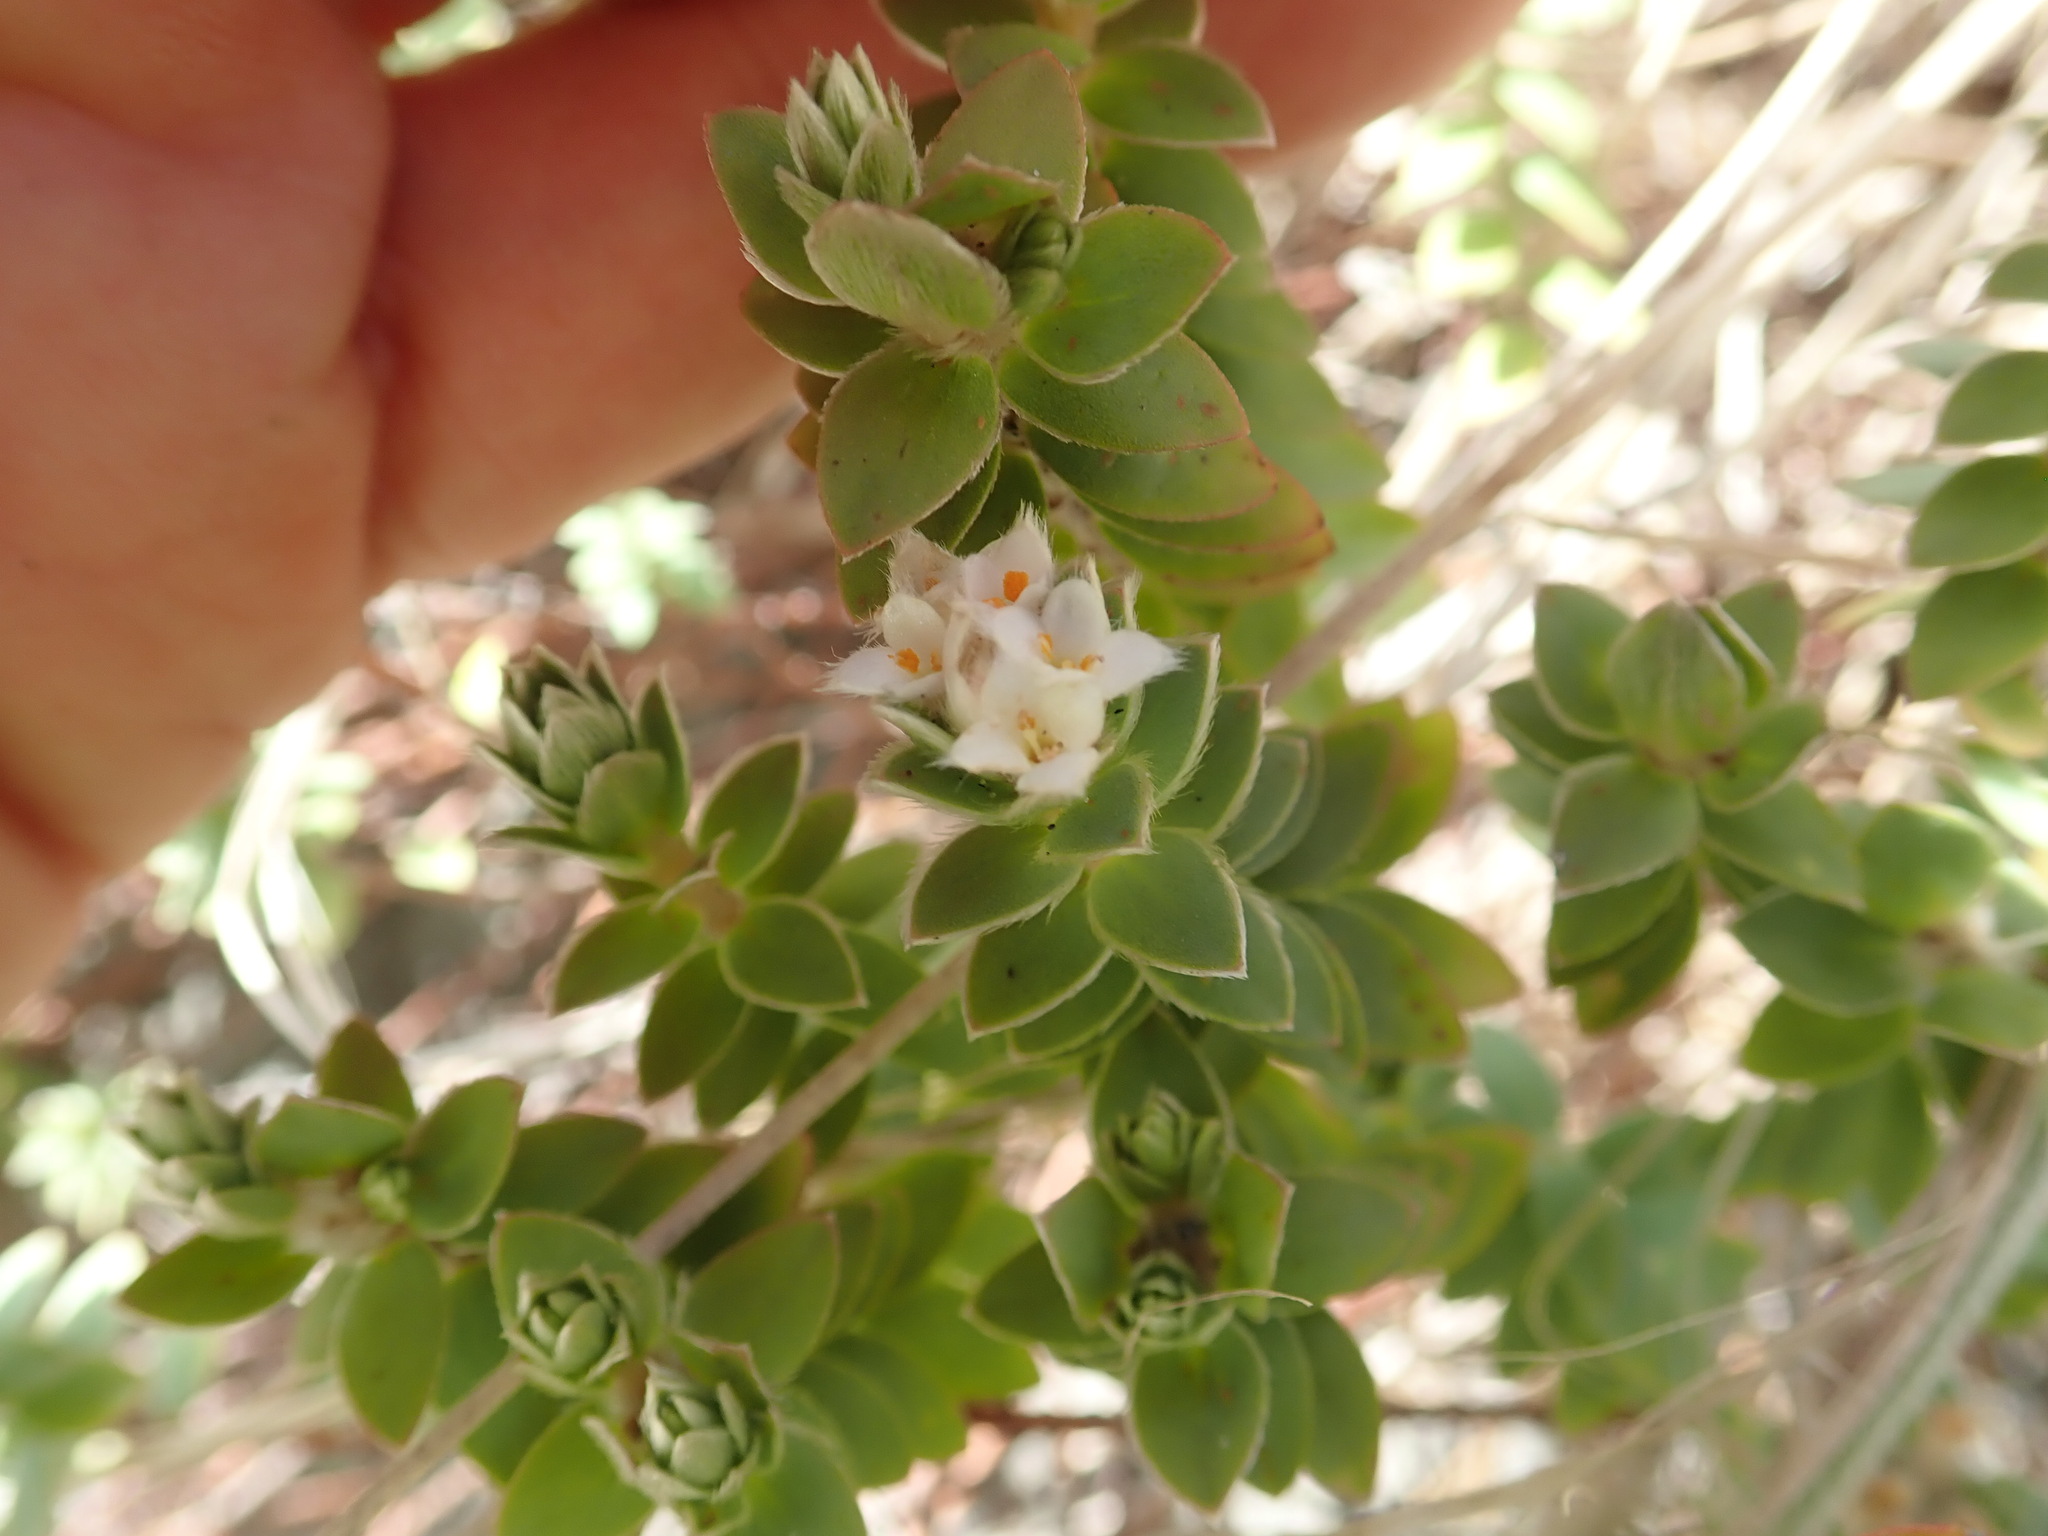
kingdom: Plantae
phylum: Tracheophyta
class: Magnoliopsida
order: Malvales
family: Thymelaeaceae
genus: Pimelea
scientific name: Pimelea villosa
